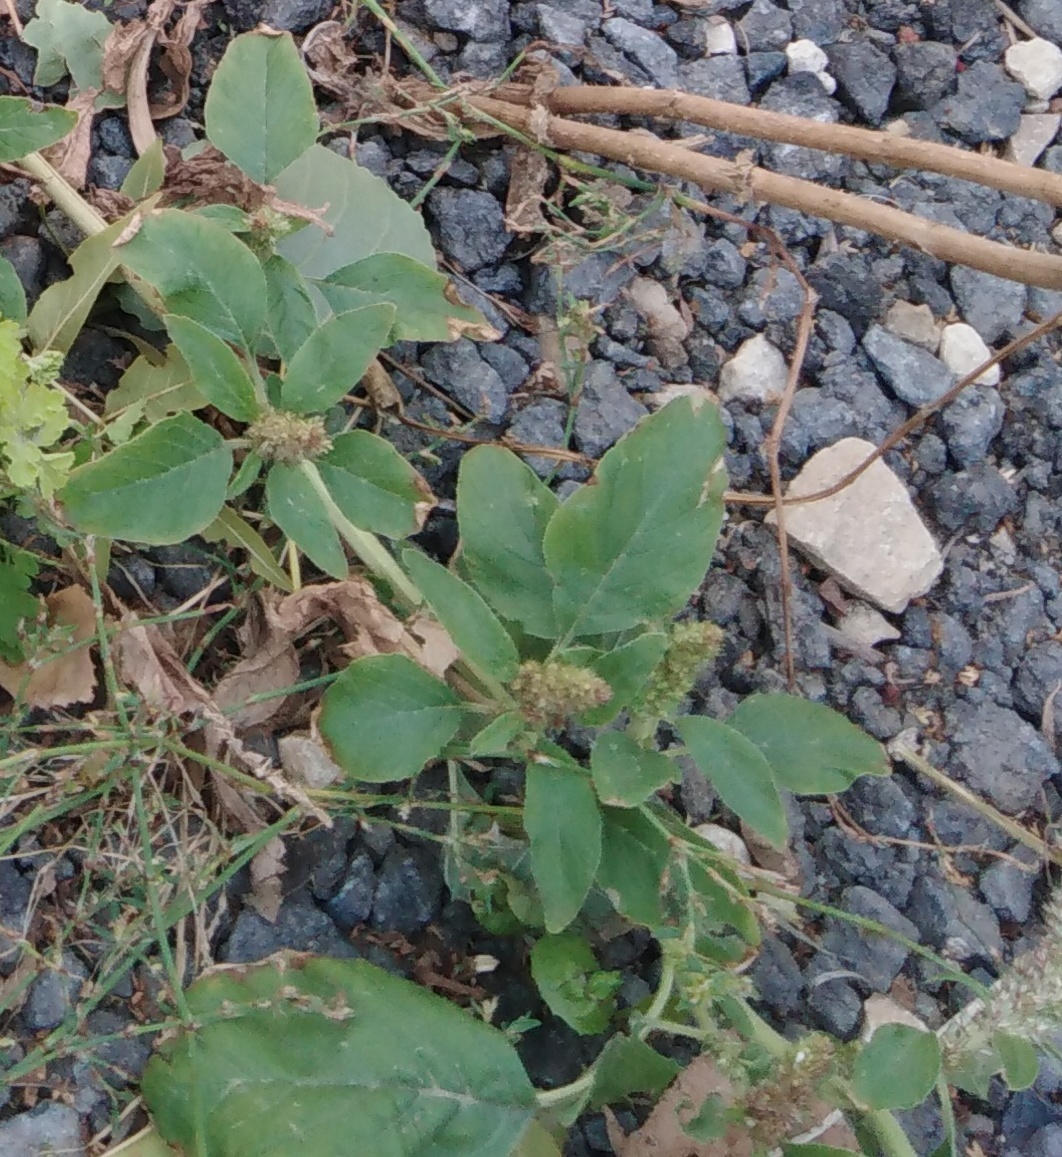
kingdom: Plantae
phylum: Tracheophyta
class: Magnoliopsida
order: Caryophyllales
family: Amaranthaceae
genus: Amaranthus
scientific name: Amaranthus retroflexus
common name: Redroot amaranth
